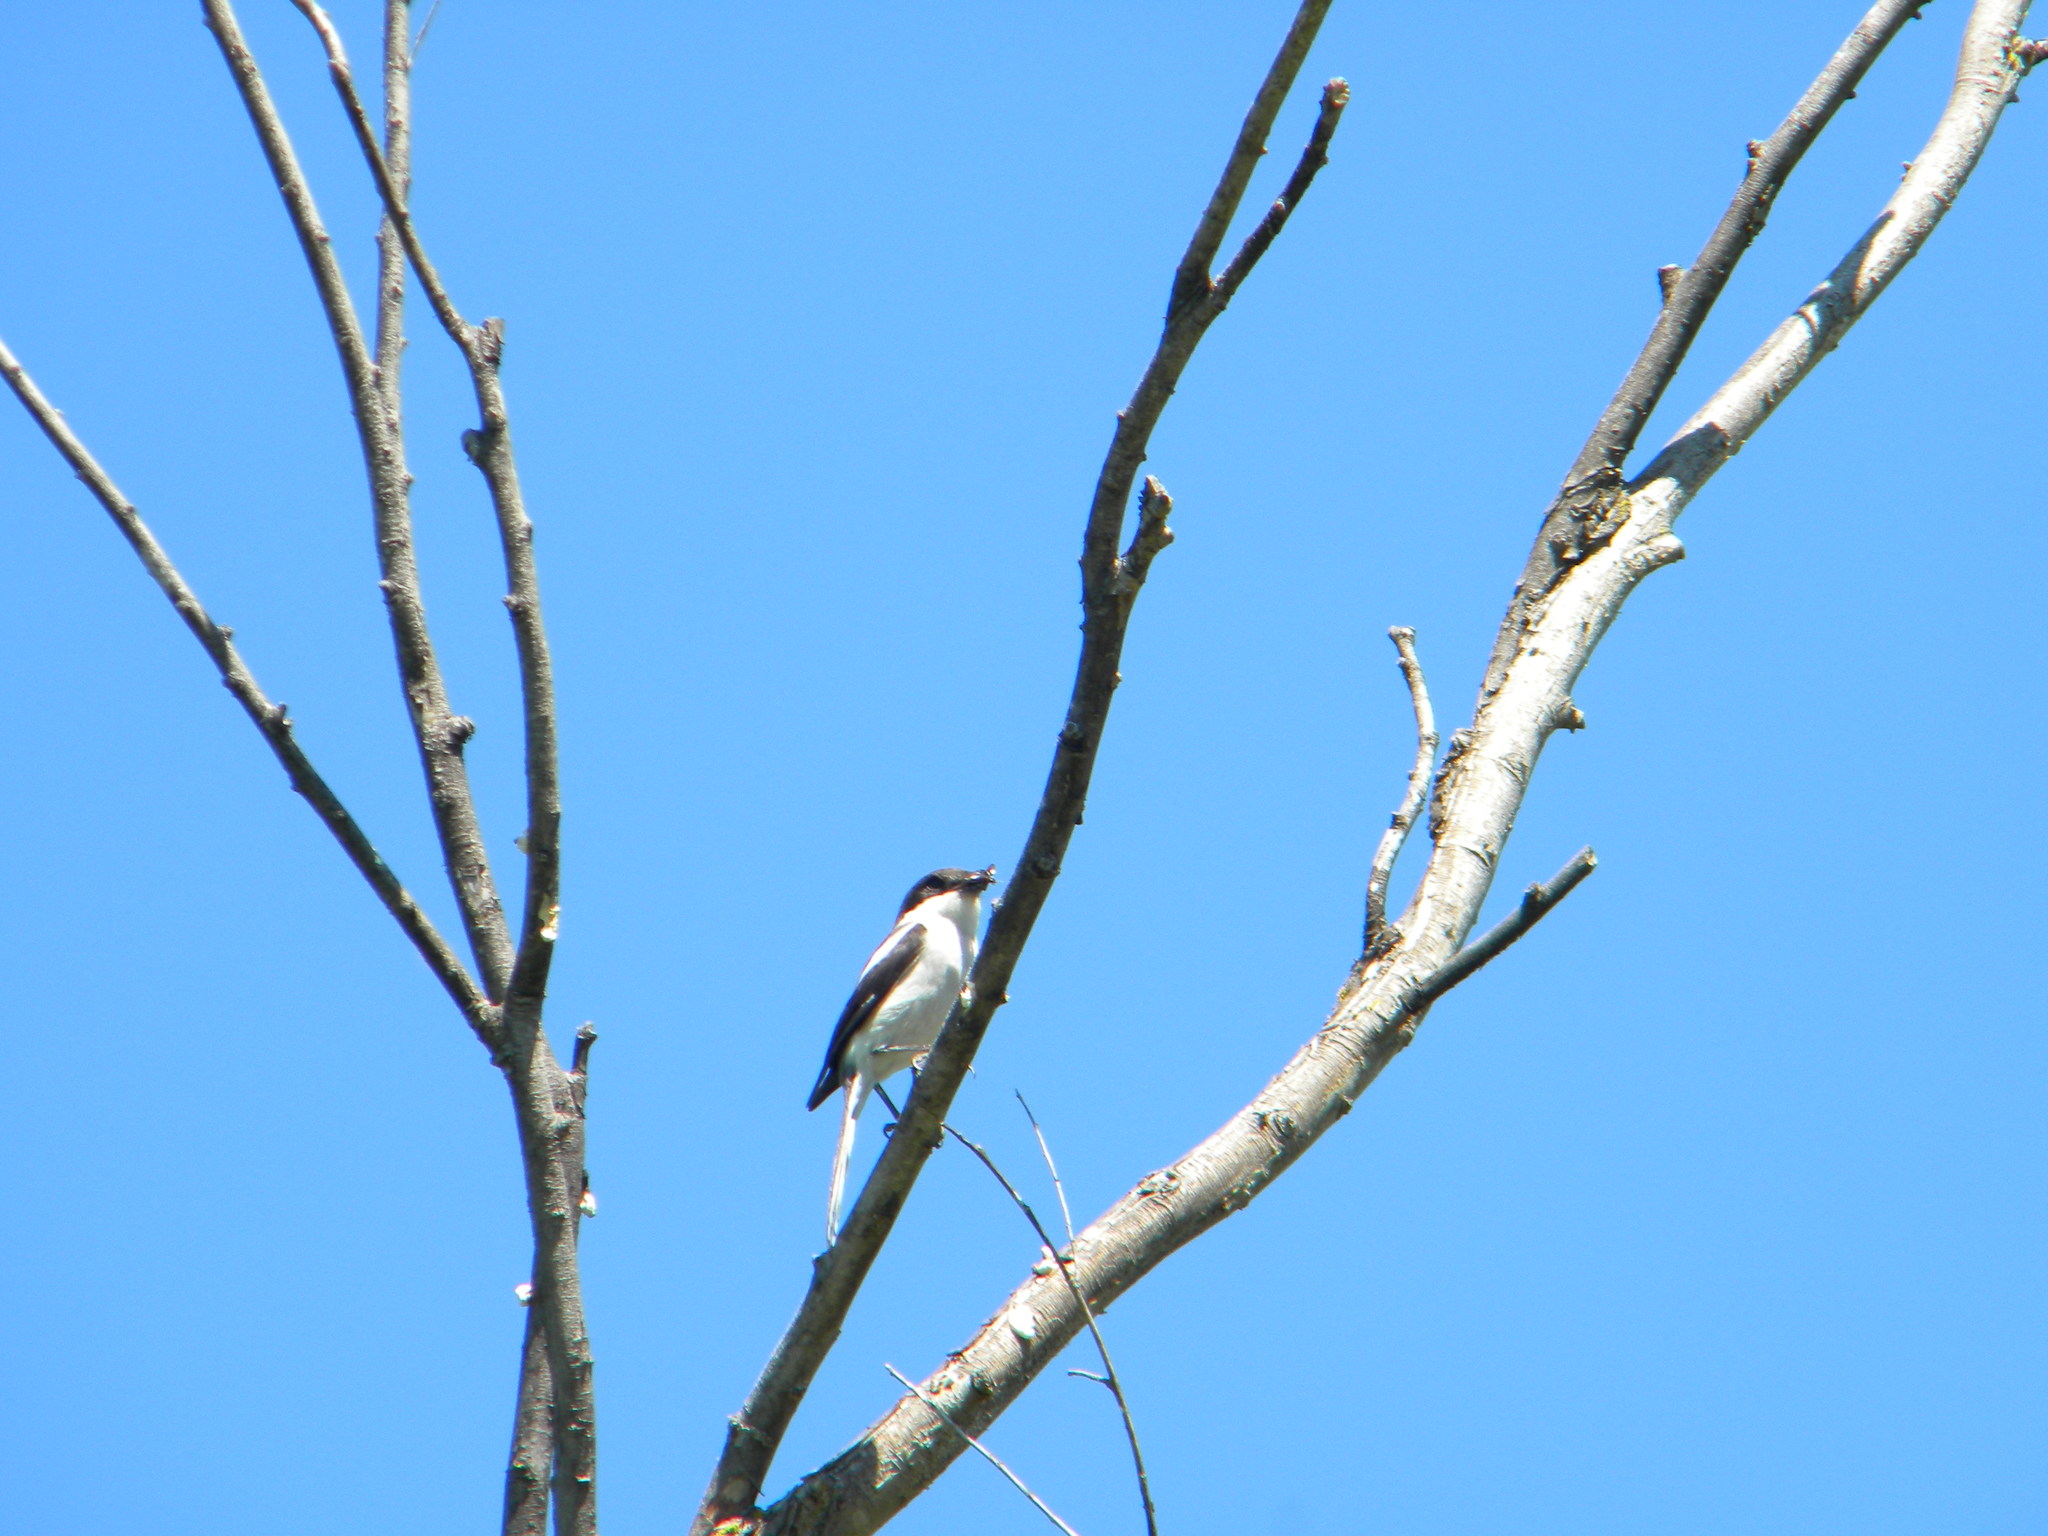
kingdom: Animalia
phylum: Chordata
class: Aves
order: Passeriformes
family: Laniidae
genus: Lanius
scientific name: Lanius collaris
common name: Southern fiscal
